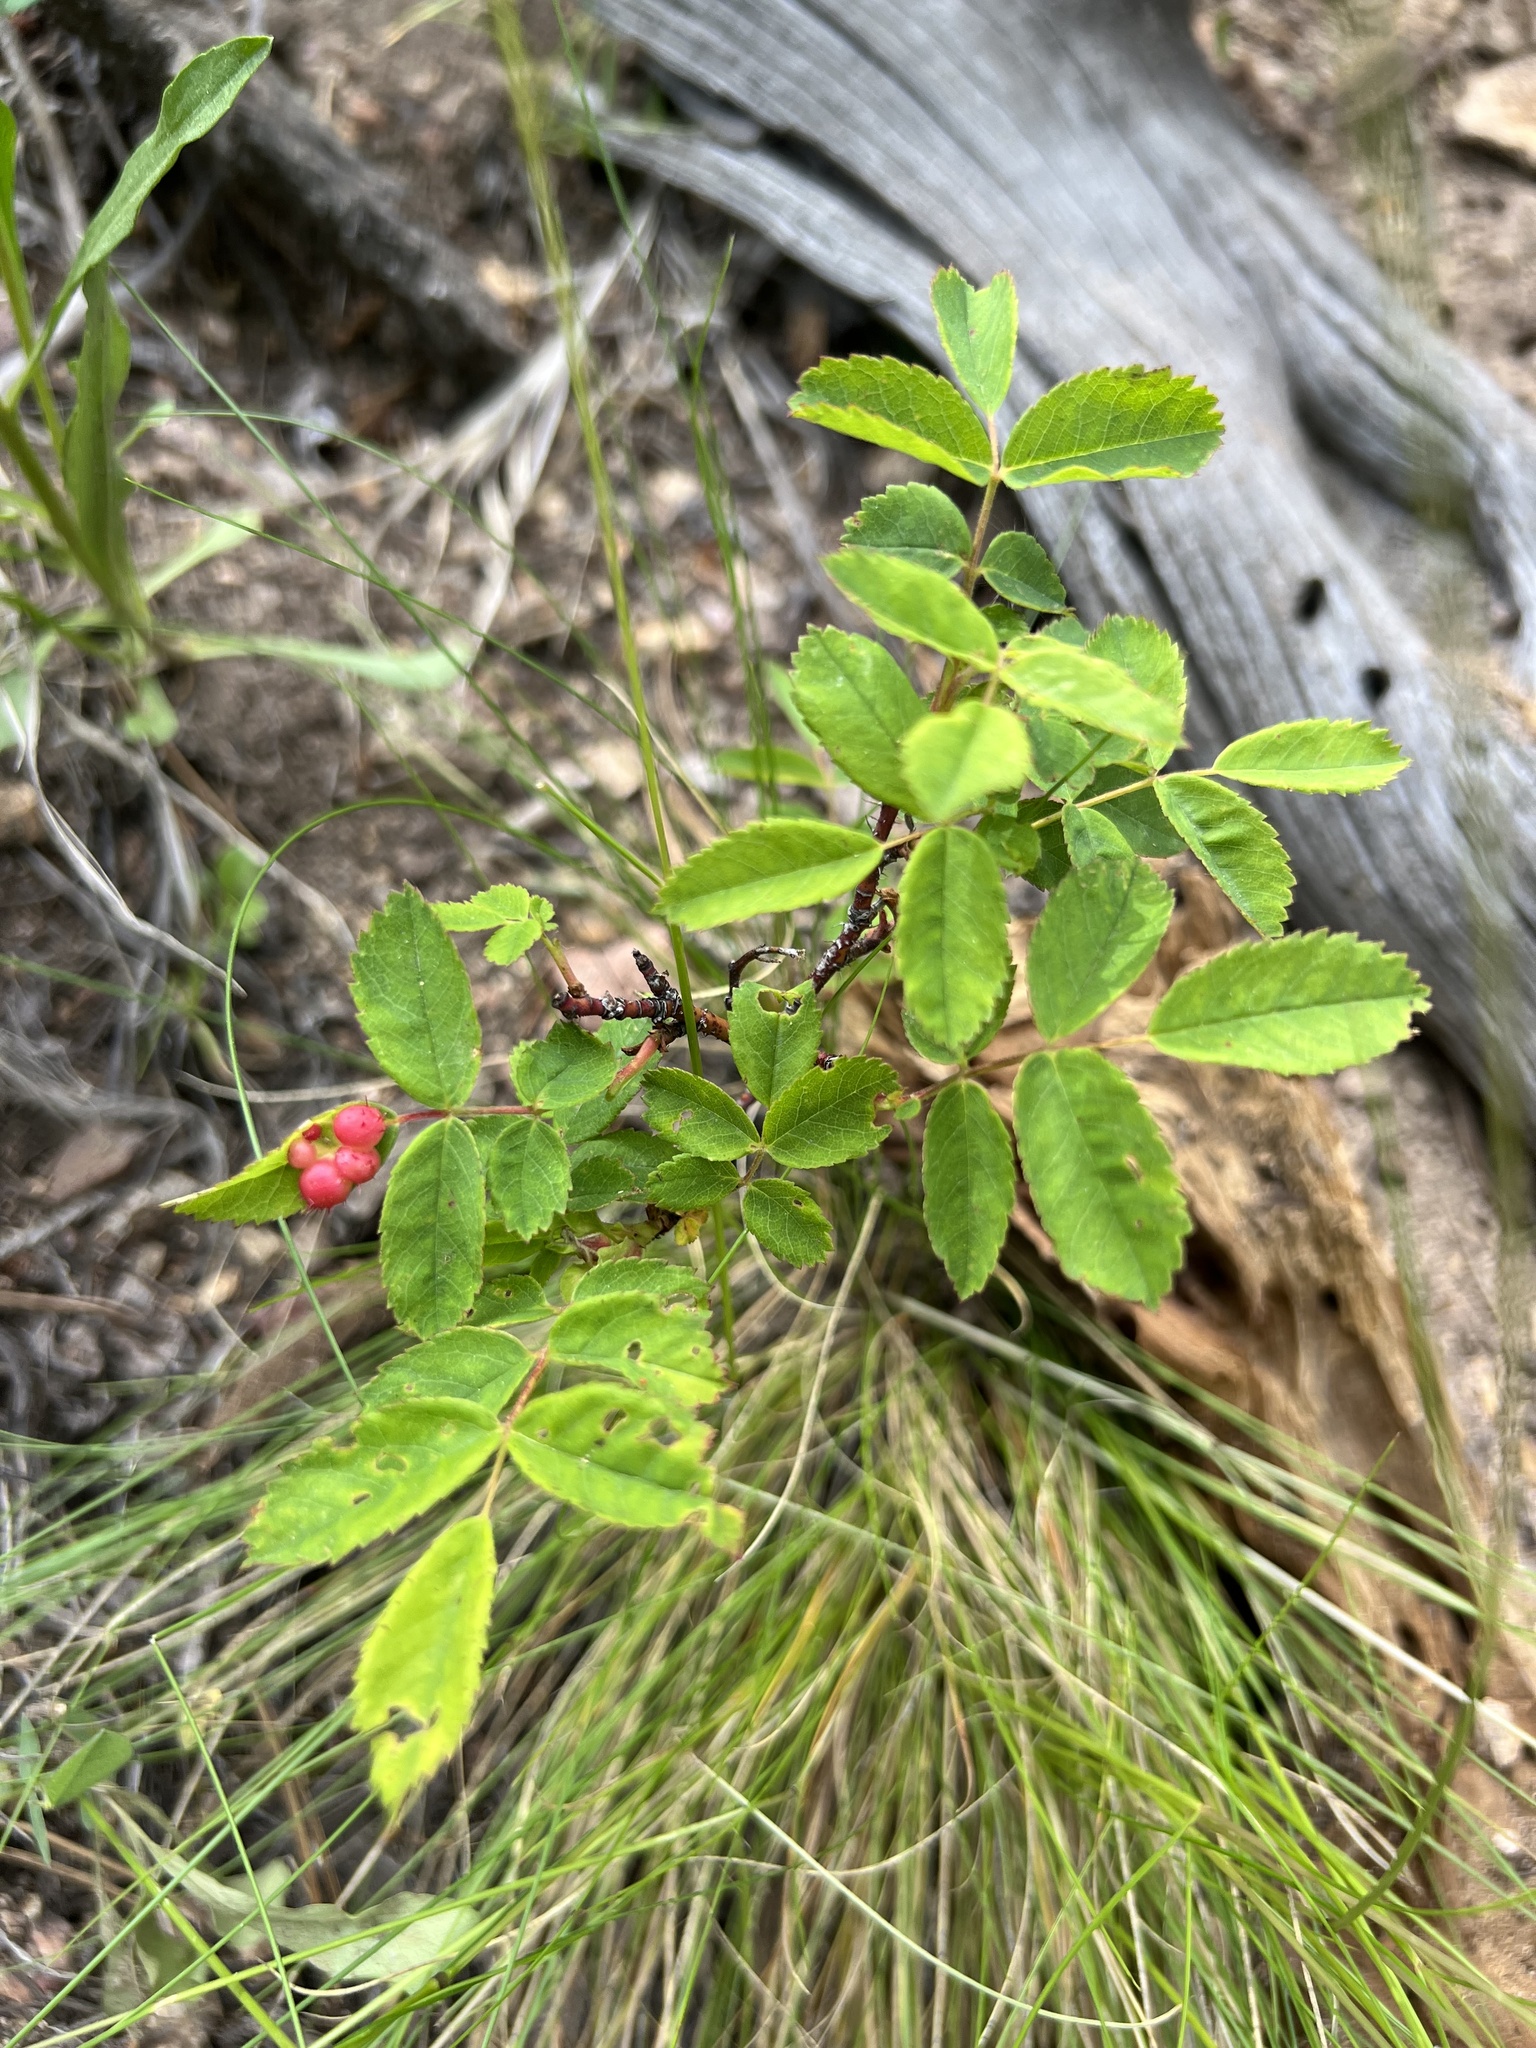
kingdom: Animalia
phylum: Arthropoda
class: Insecta
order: Hymenoptera
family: Cynipidae
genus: Diplolepis
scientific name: Diplolepis polita
